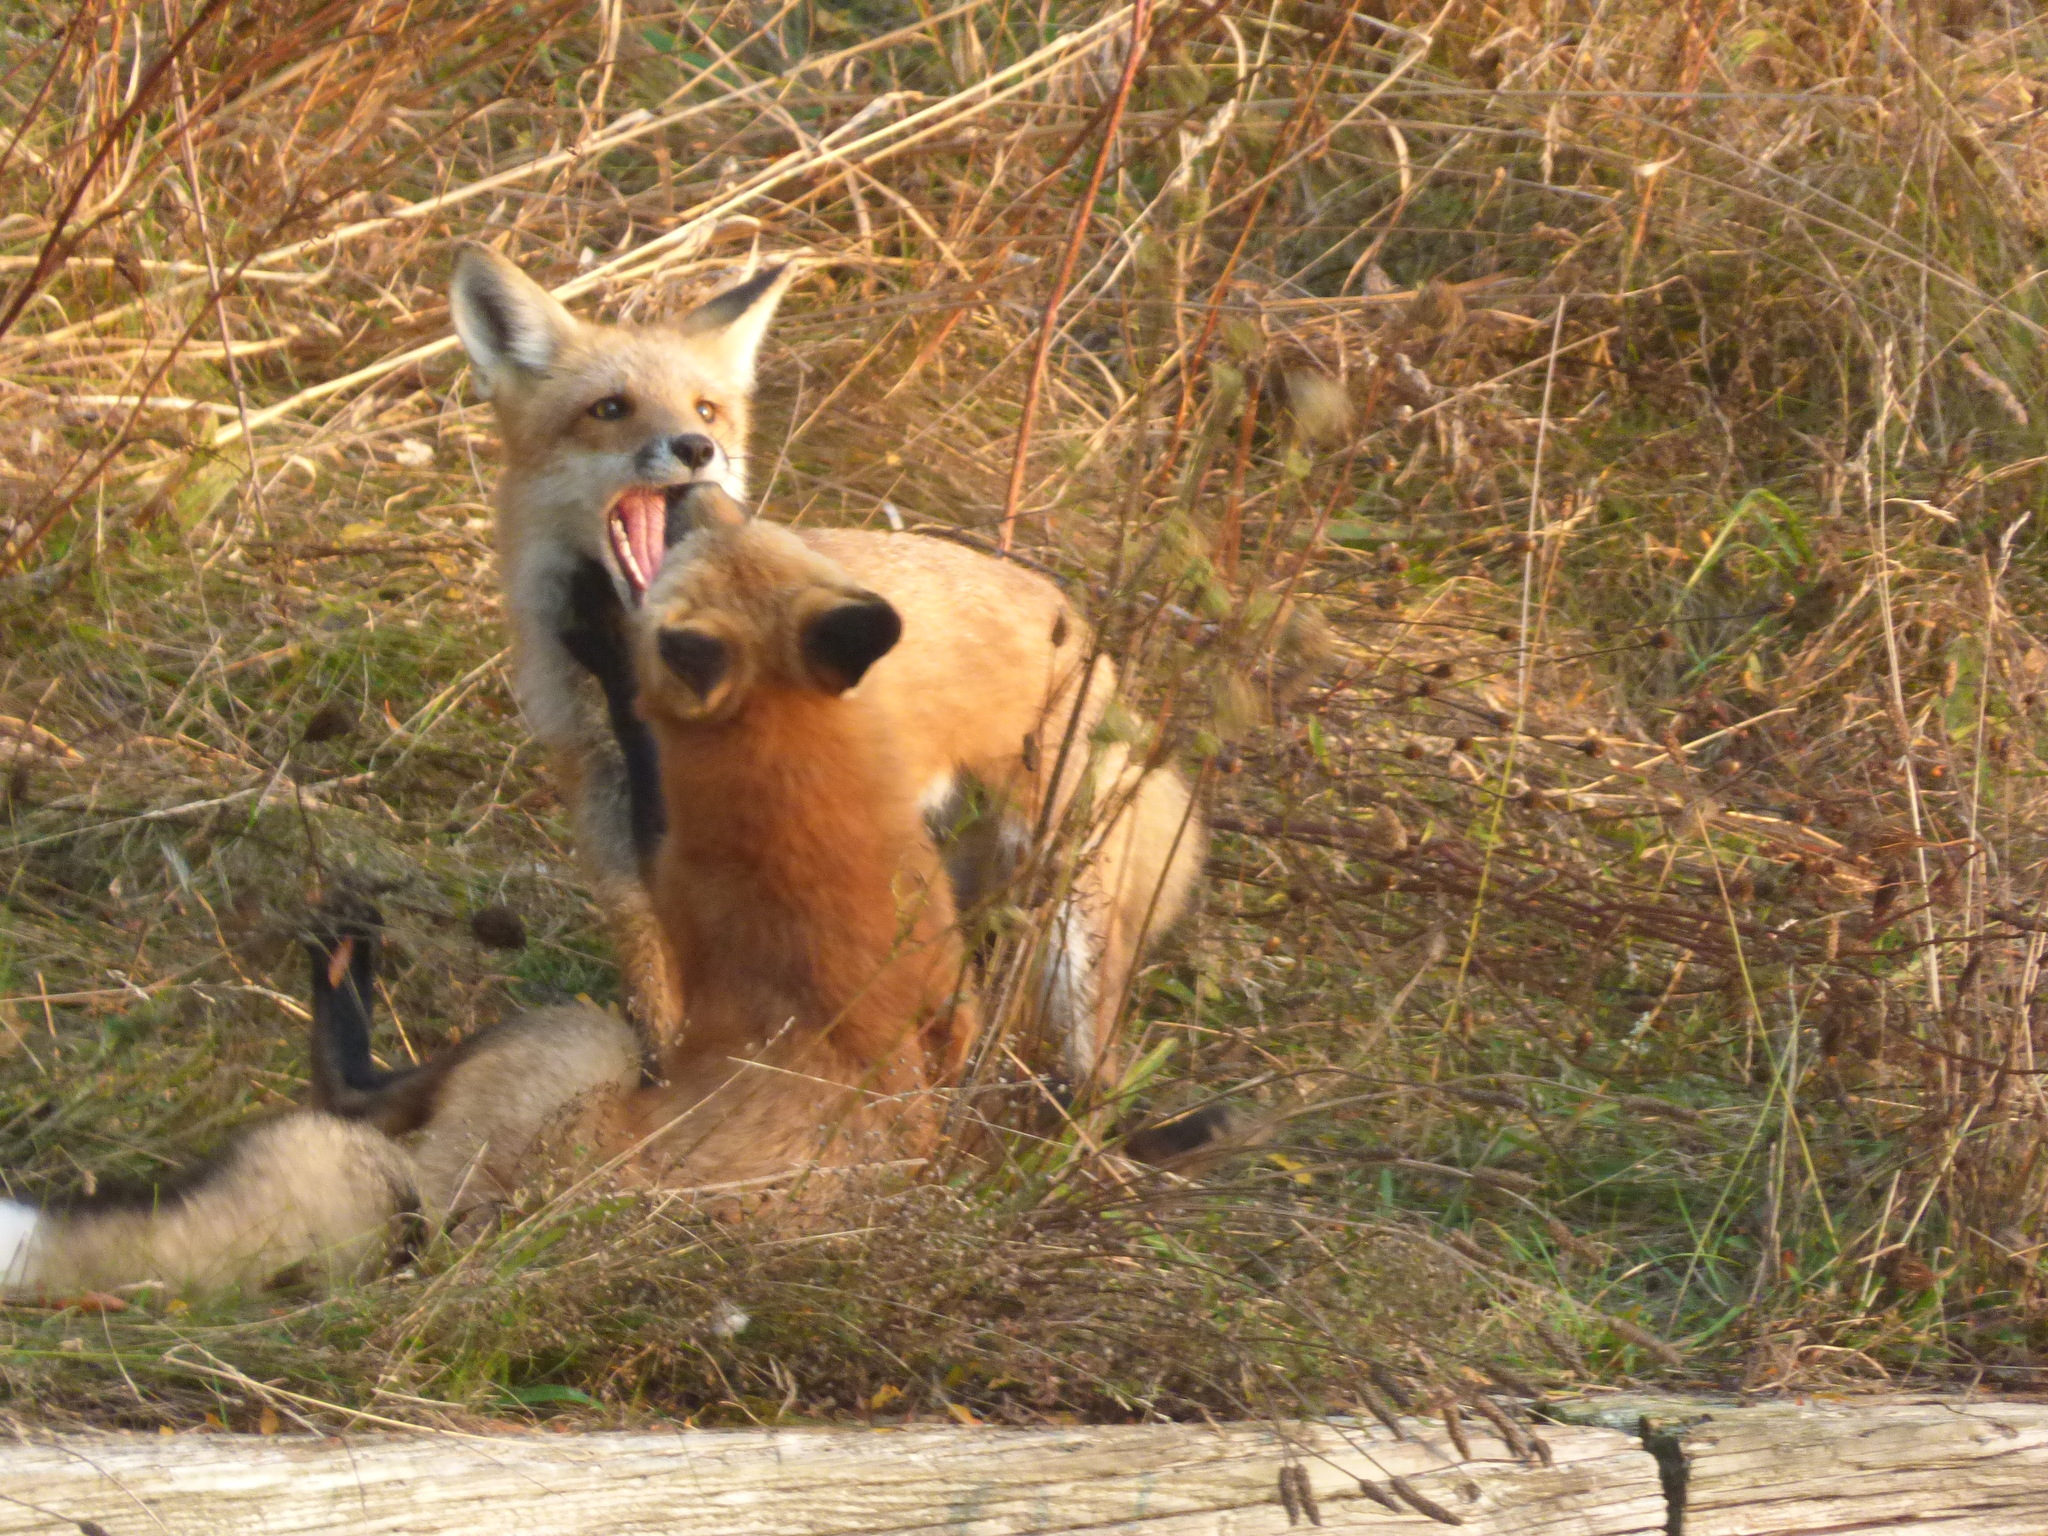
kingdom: Animalia
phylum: Chordata
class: Mammalia
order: Carnivora
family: Canidae
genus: Vulpes
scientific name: Vulpes vulpes
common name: Red fox
